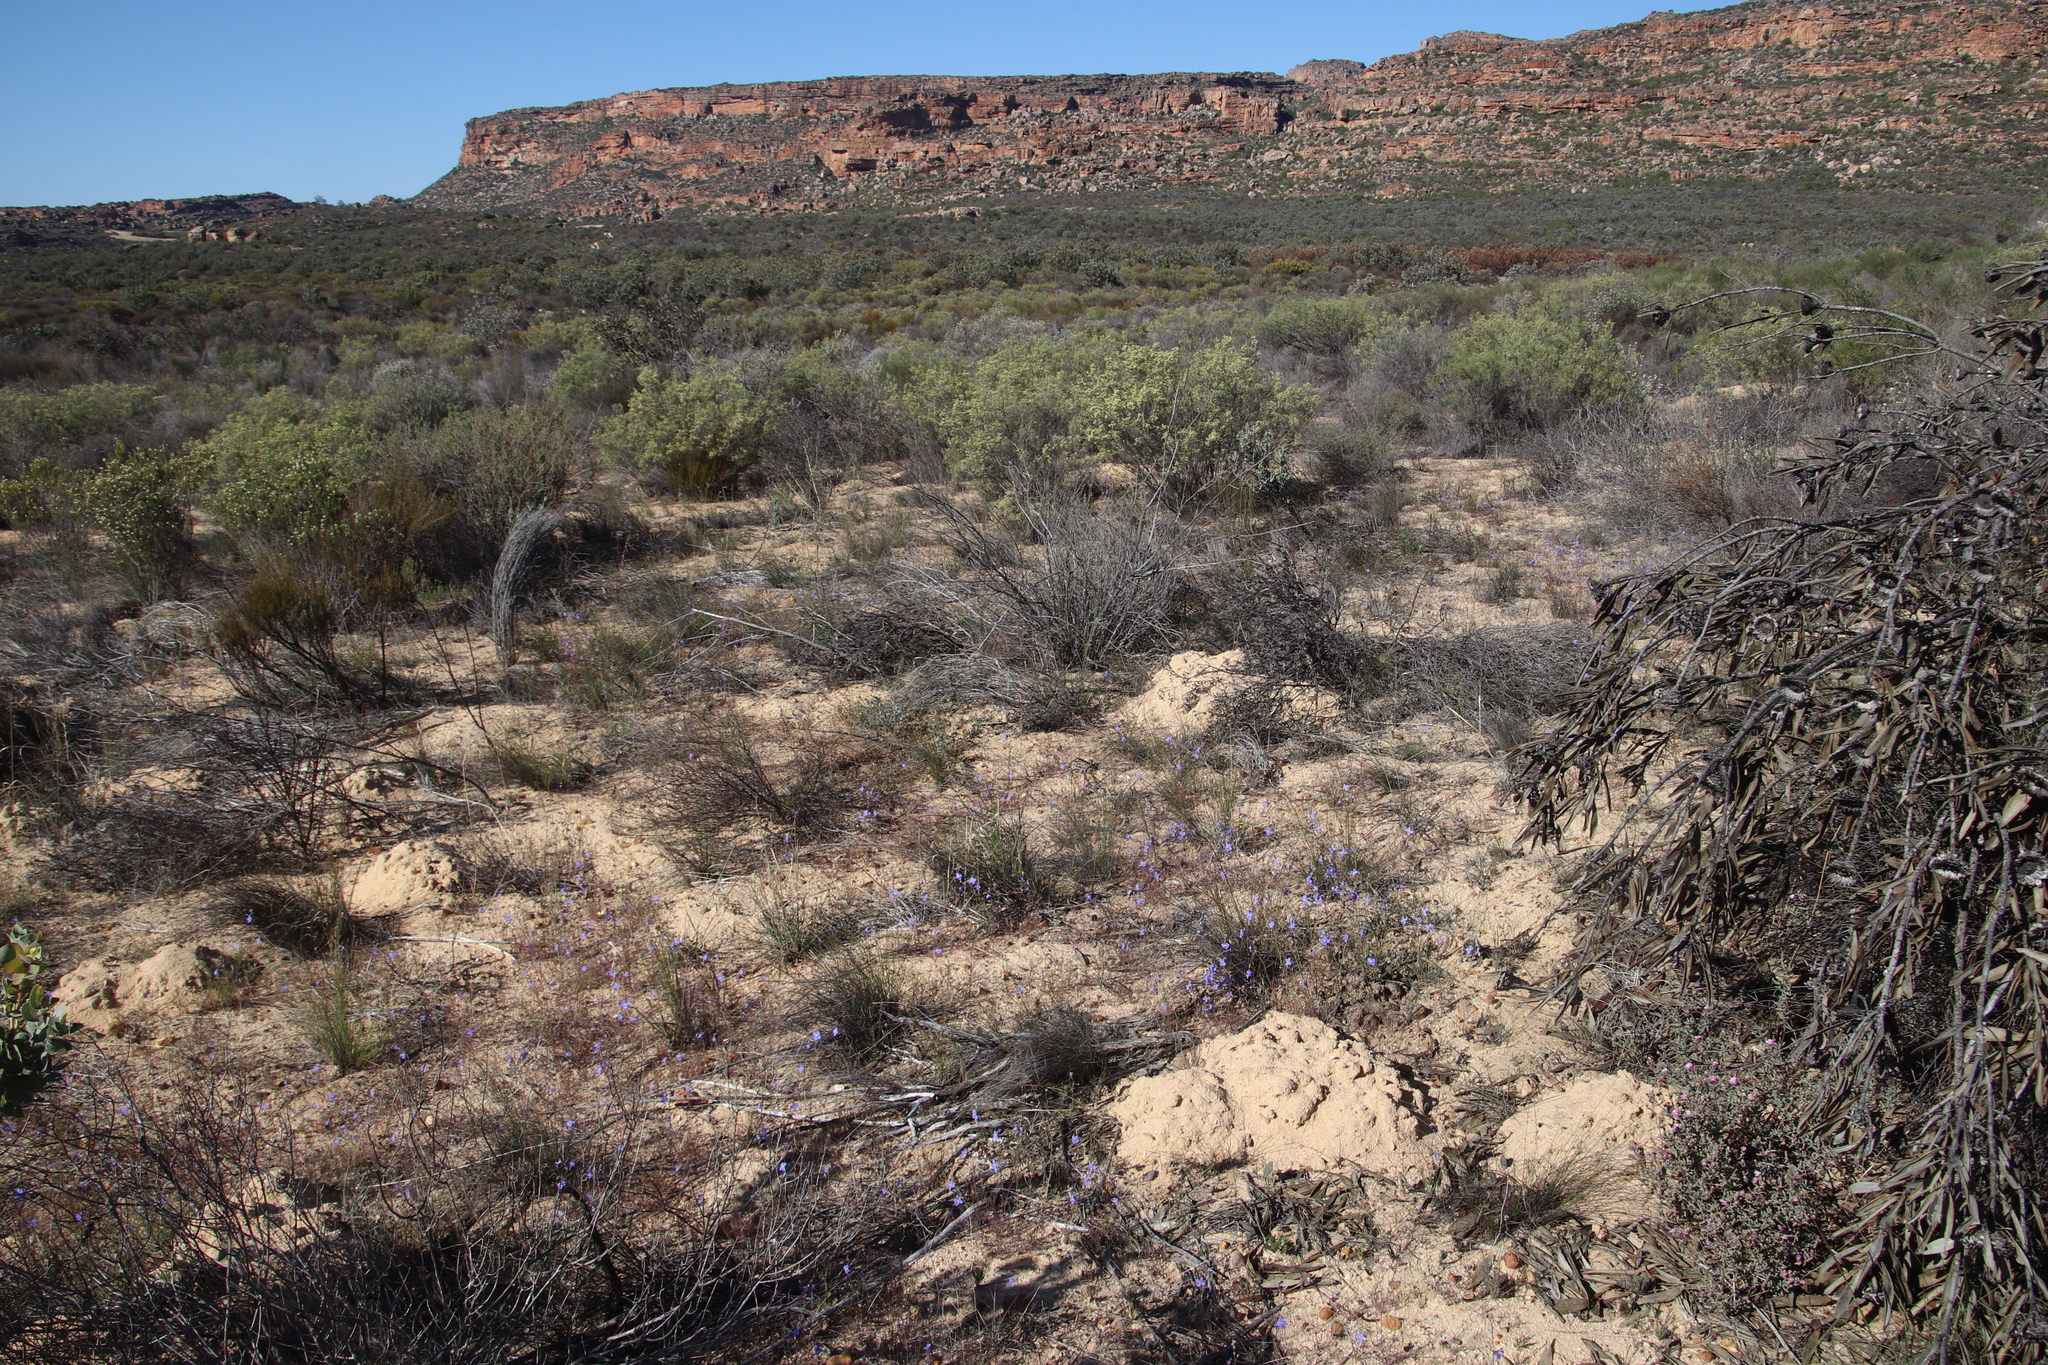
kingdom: Plantae
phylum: Tracheophyta
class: Magnoliopsida
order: Brassicales
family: Brassicaceae
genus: Heliophila
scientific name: Heliophila arenaria
